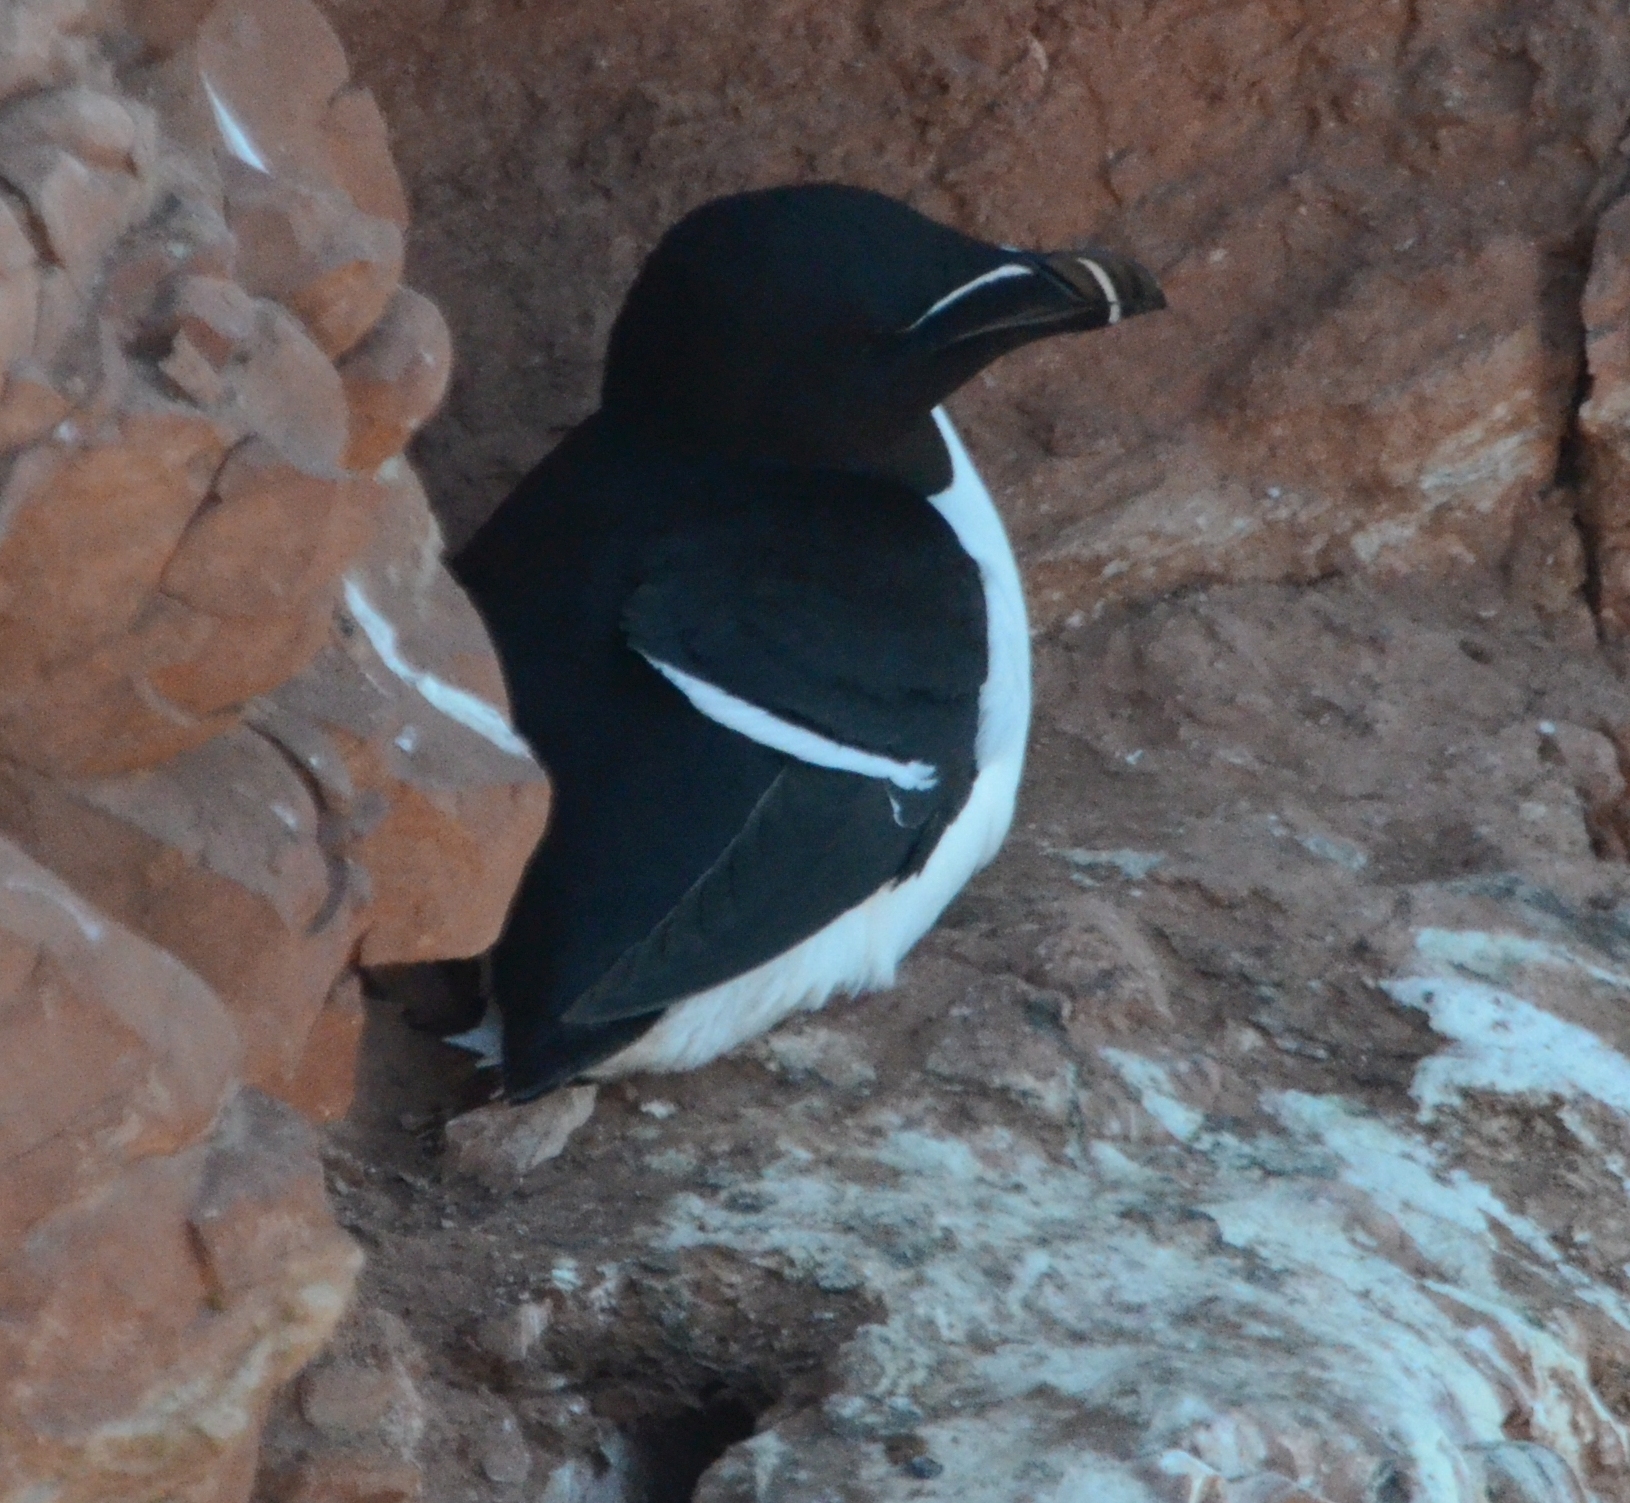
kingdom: Animalia
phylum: Chordata
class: Aves
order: Charadriiformes
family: Alcidae
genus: Alca
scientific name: Alca torda
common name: Razorbill
